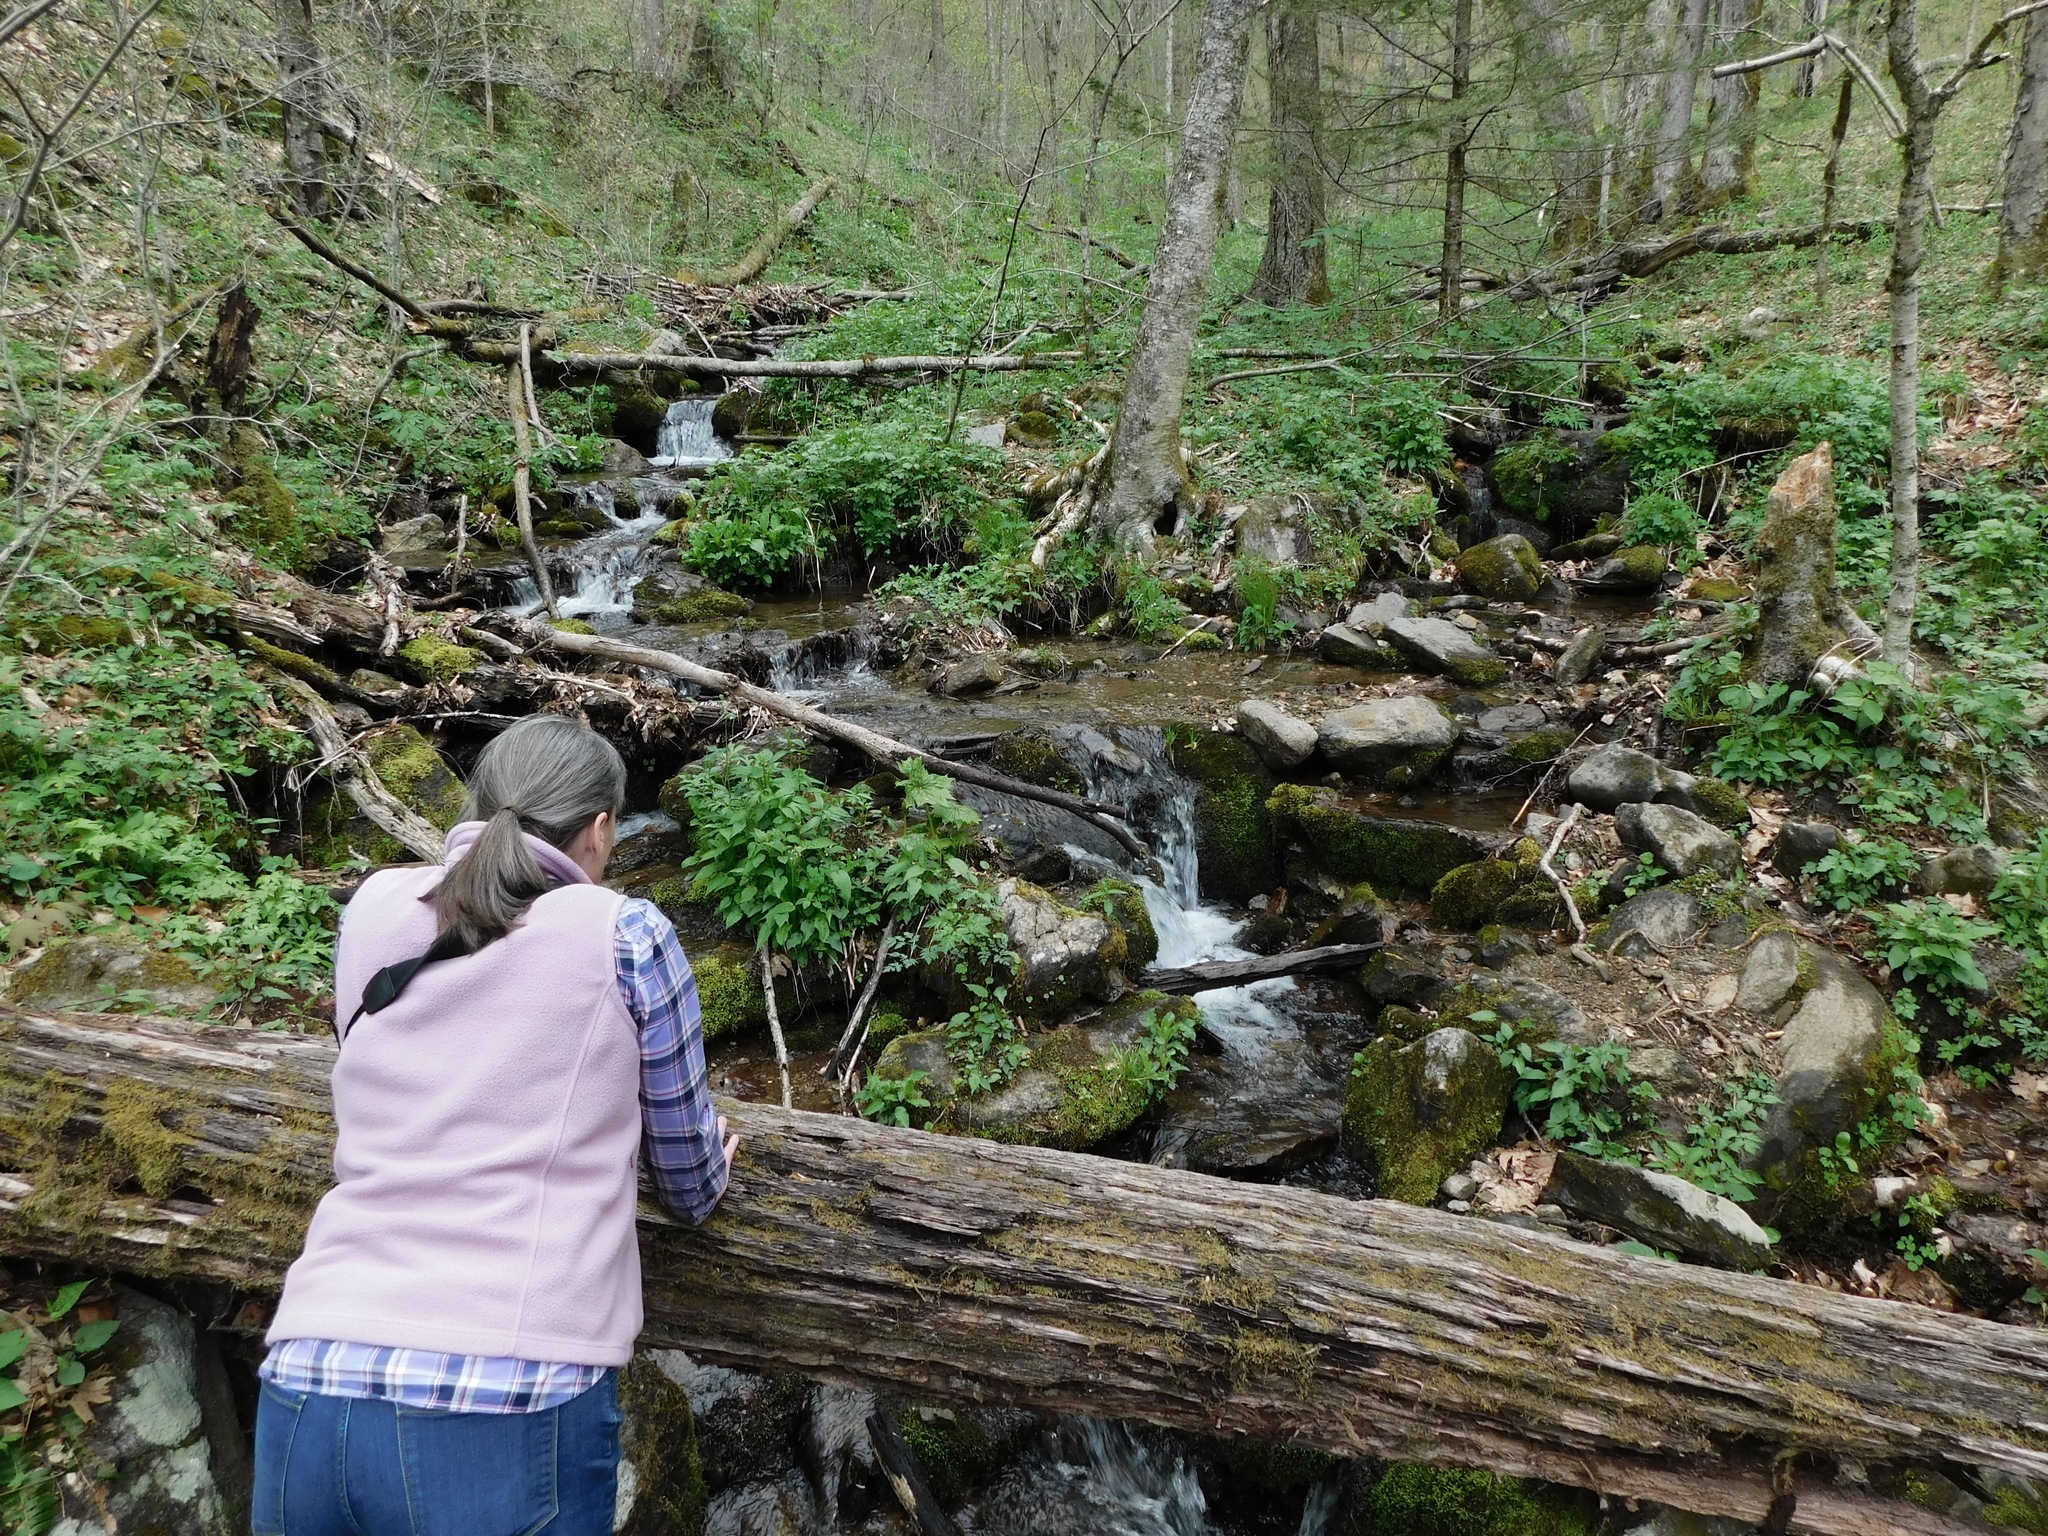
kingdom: Plantae
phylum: Tracheophyta
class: Magnoliopsida
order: Ranunculales
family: Berberidaceae
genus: Diphylleia
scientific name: Diphylleia cymosa
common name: Umbrella-leaf
